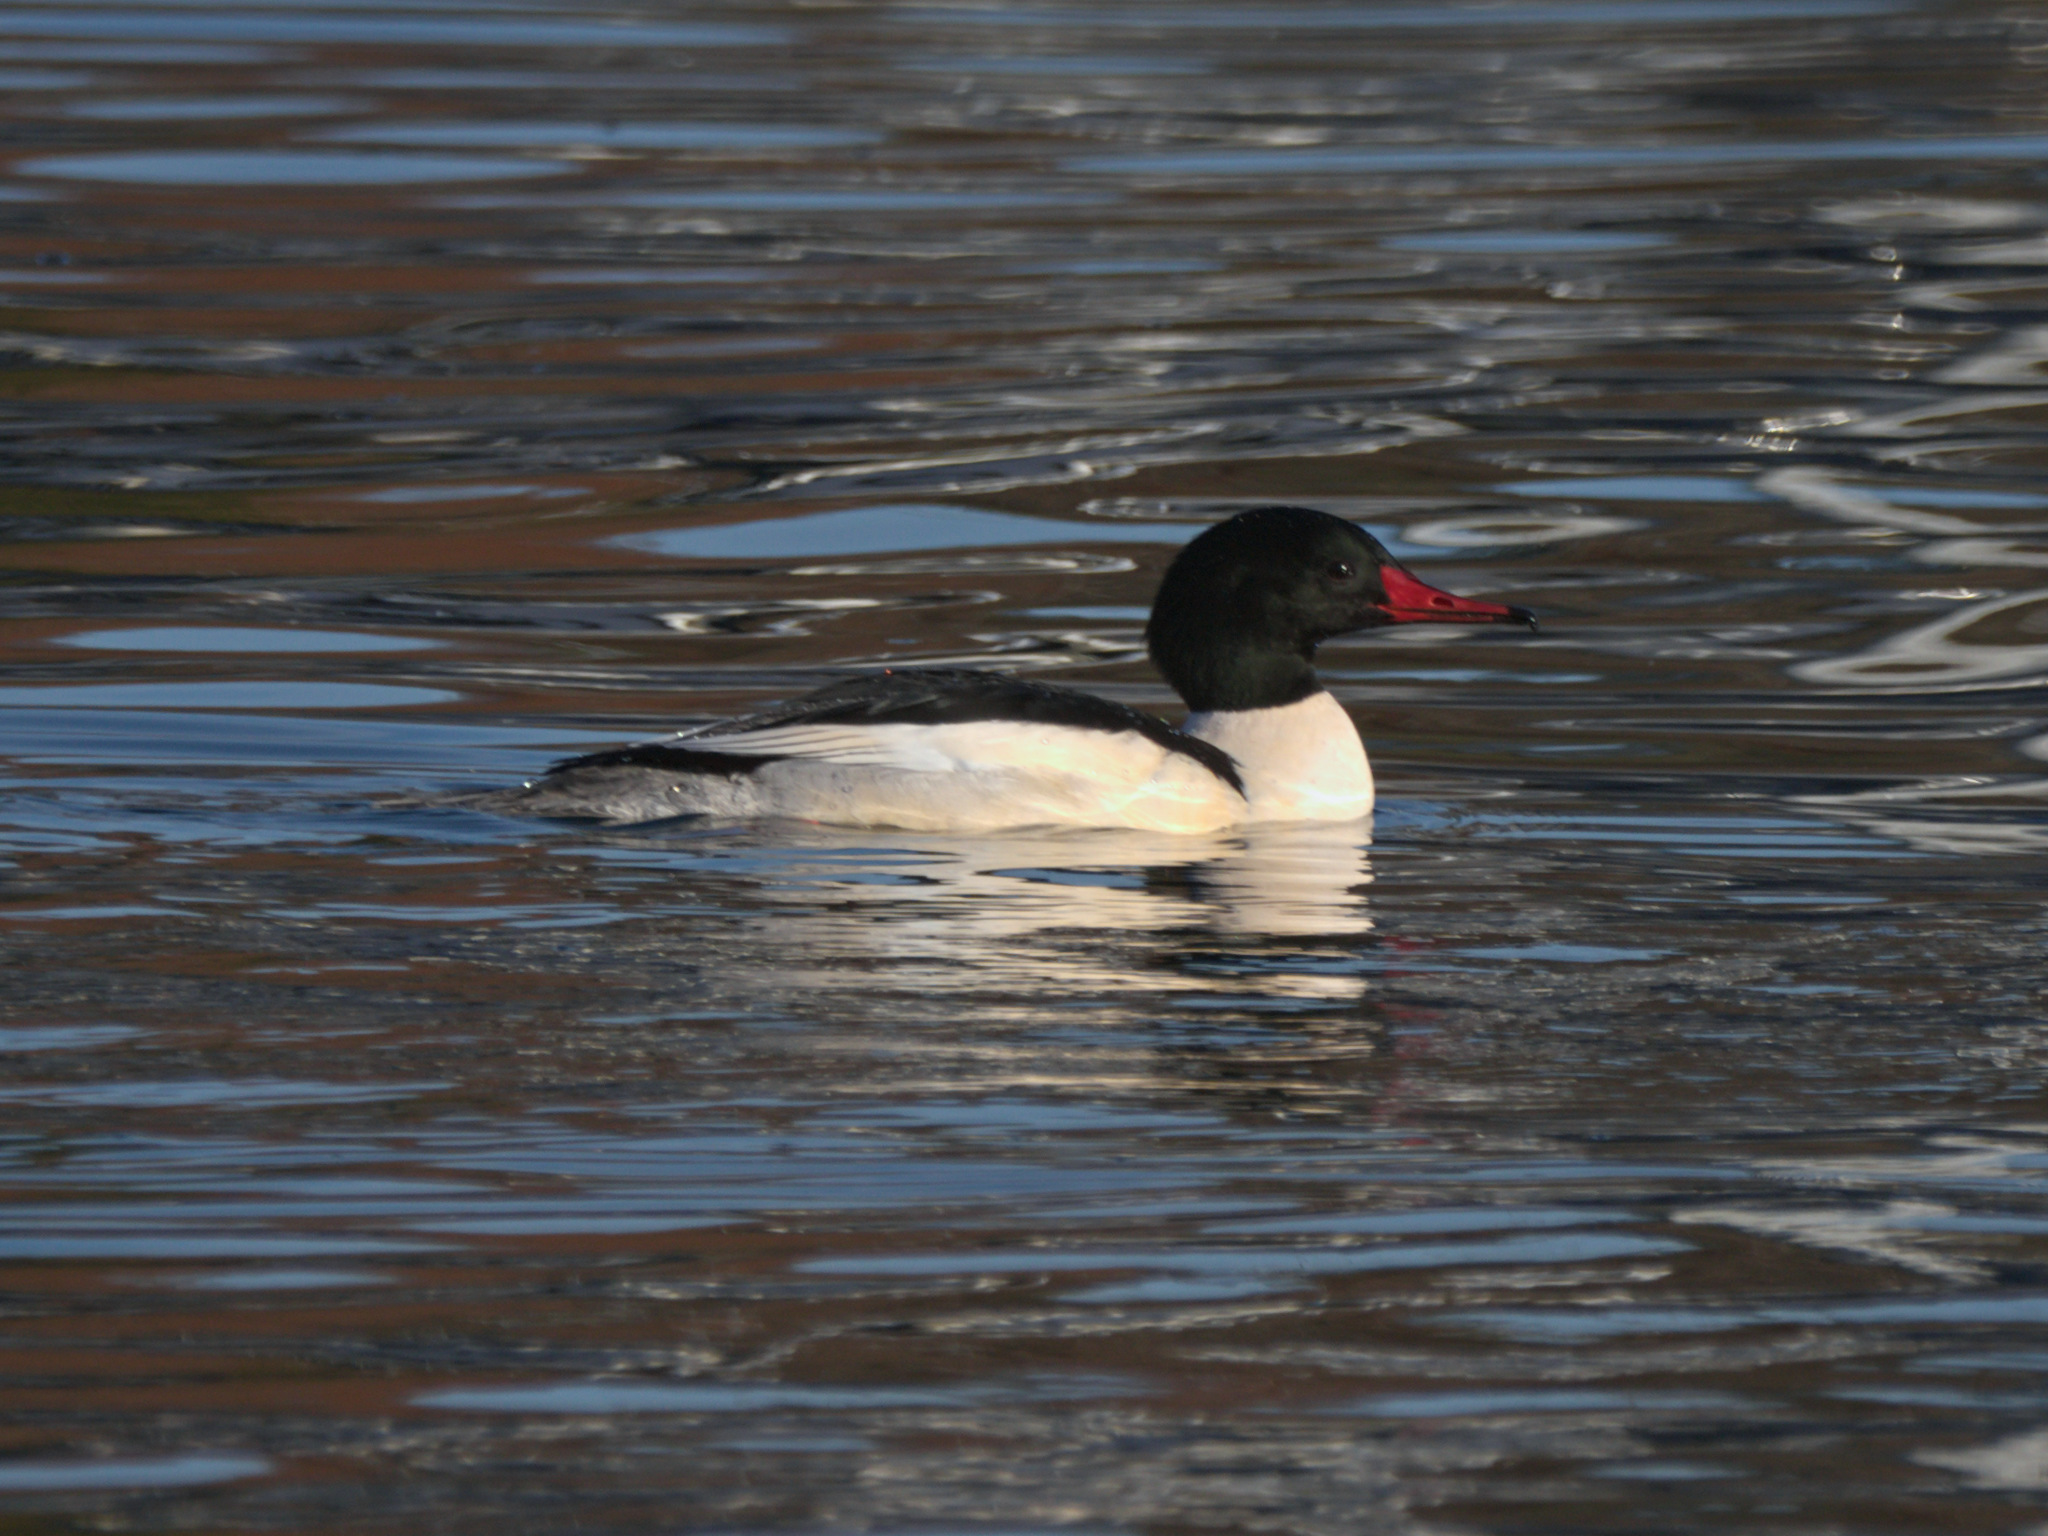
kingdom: Animalia
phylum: Chordata
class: Aves
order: Anseriformes
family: Anatidae
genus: Mergus
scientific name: Mergus merganser
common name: Common merganser
